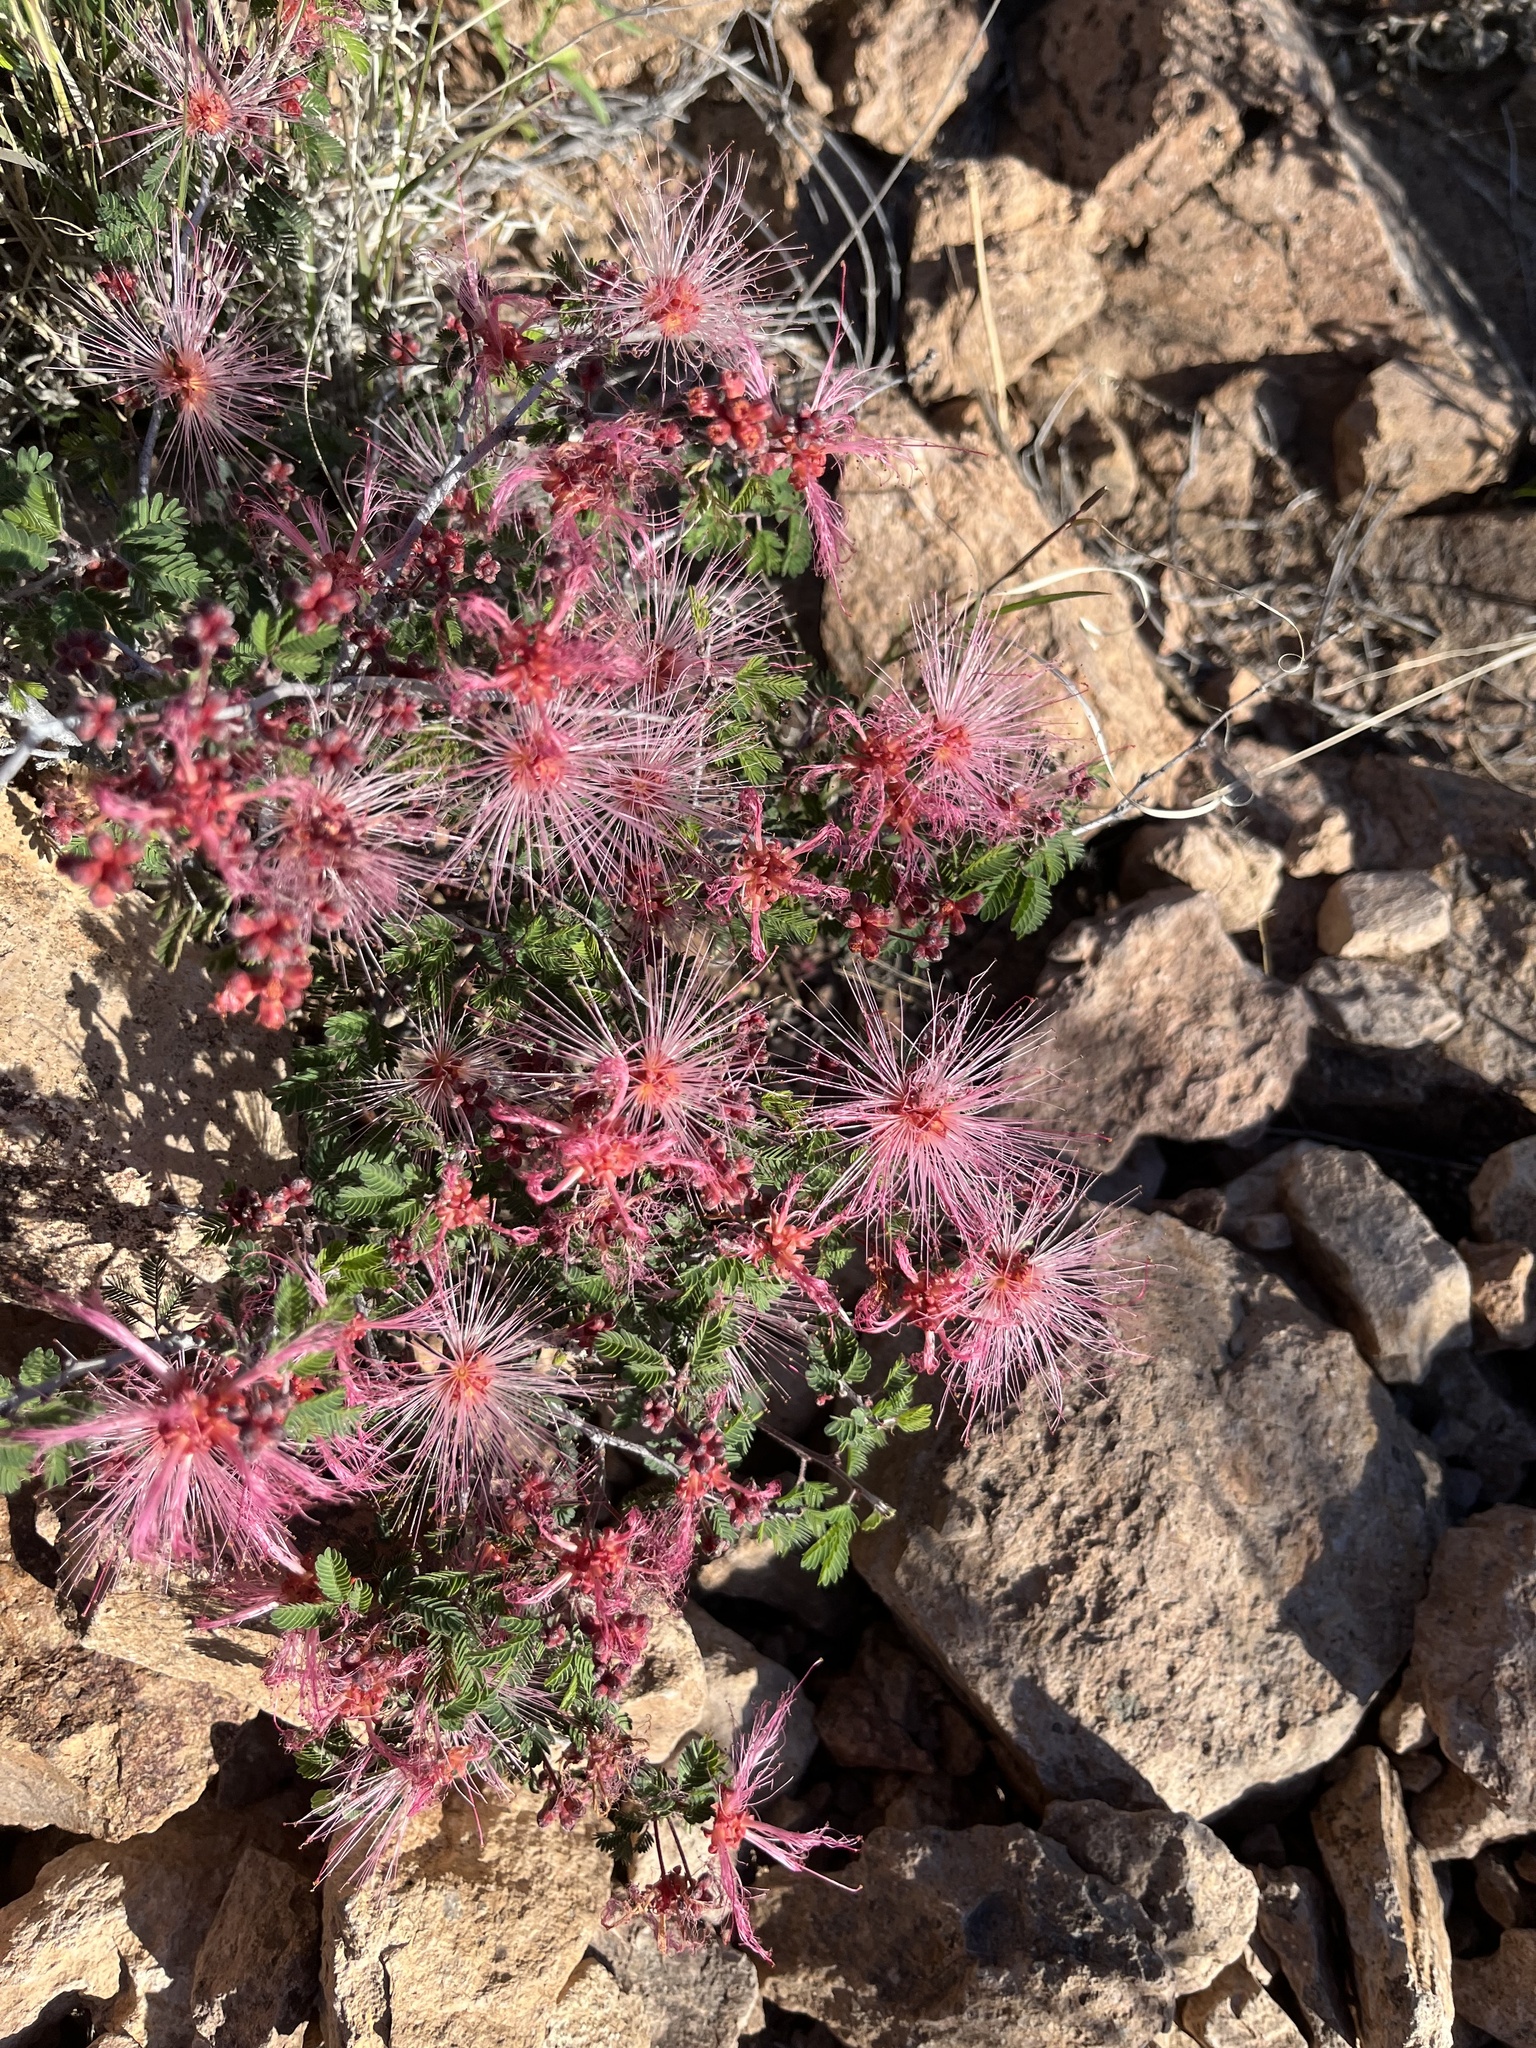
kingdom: Plantae
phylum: Tracheophyta
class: Magnoliopsida
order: Fabales
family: Fabaceae
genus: Calliandra
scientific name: Calliandra eriophylla
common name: Fairy-duster
